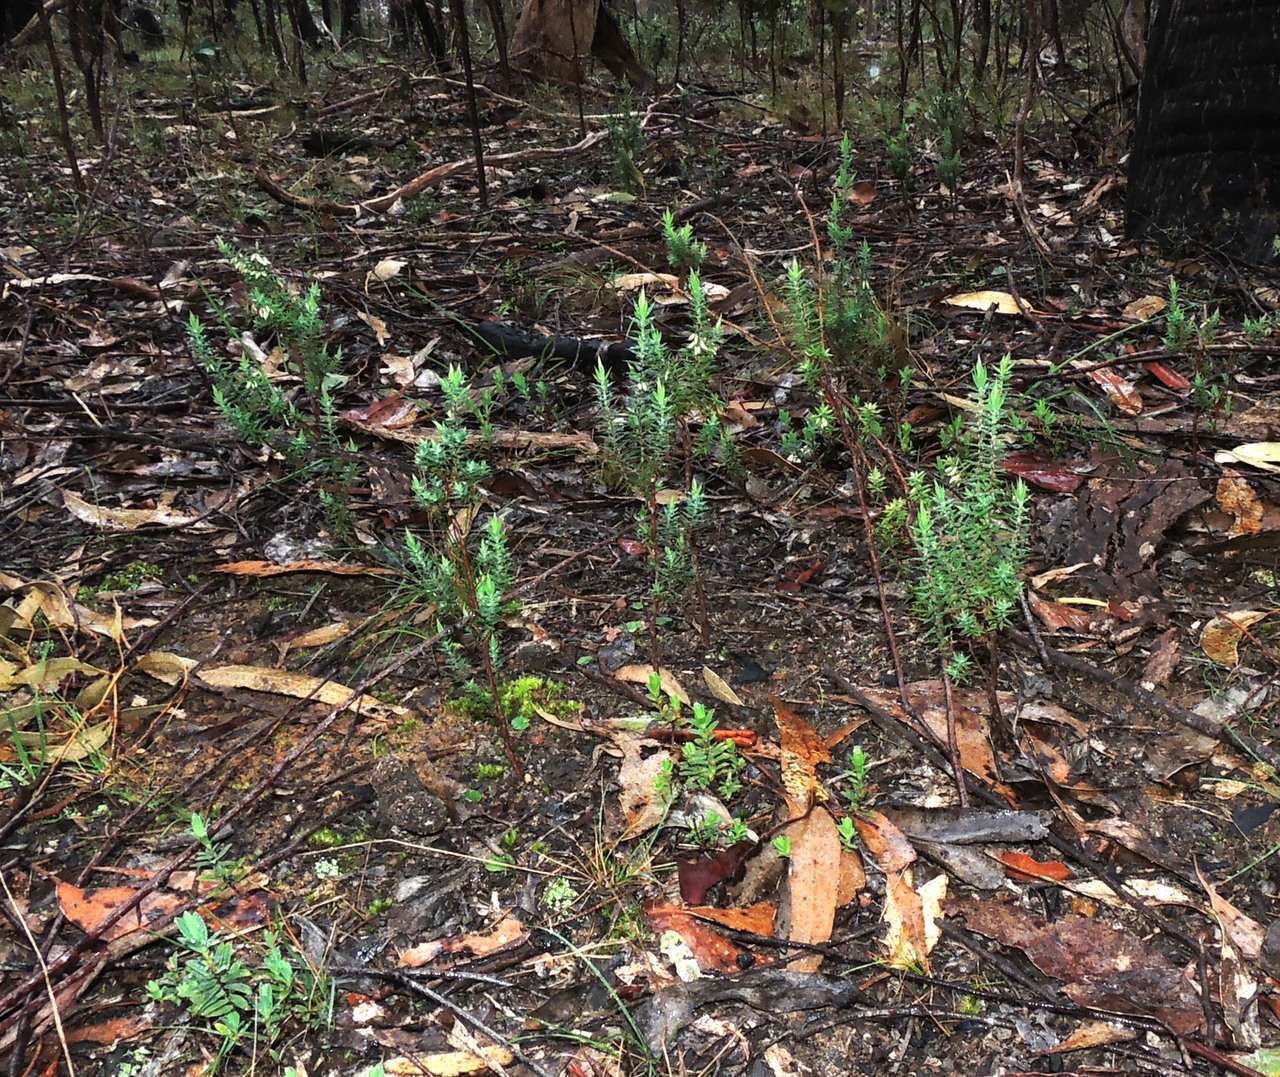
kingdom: Plantae
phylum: Tracheophyta
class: Magnoliopsida
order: Ericales
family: Ericaceae
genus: Styphelia
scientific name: Styphelia fletcheri
